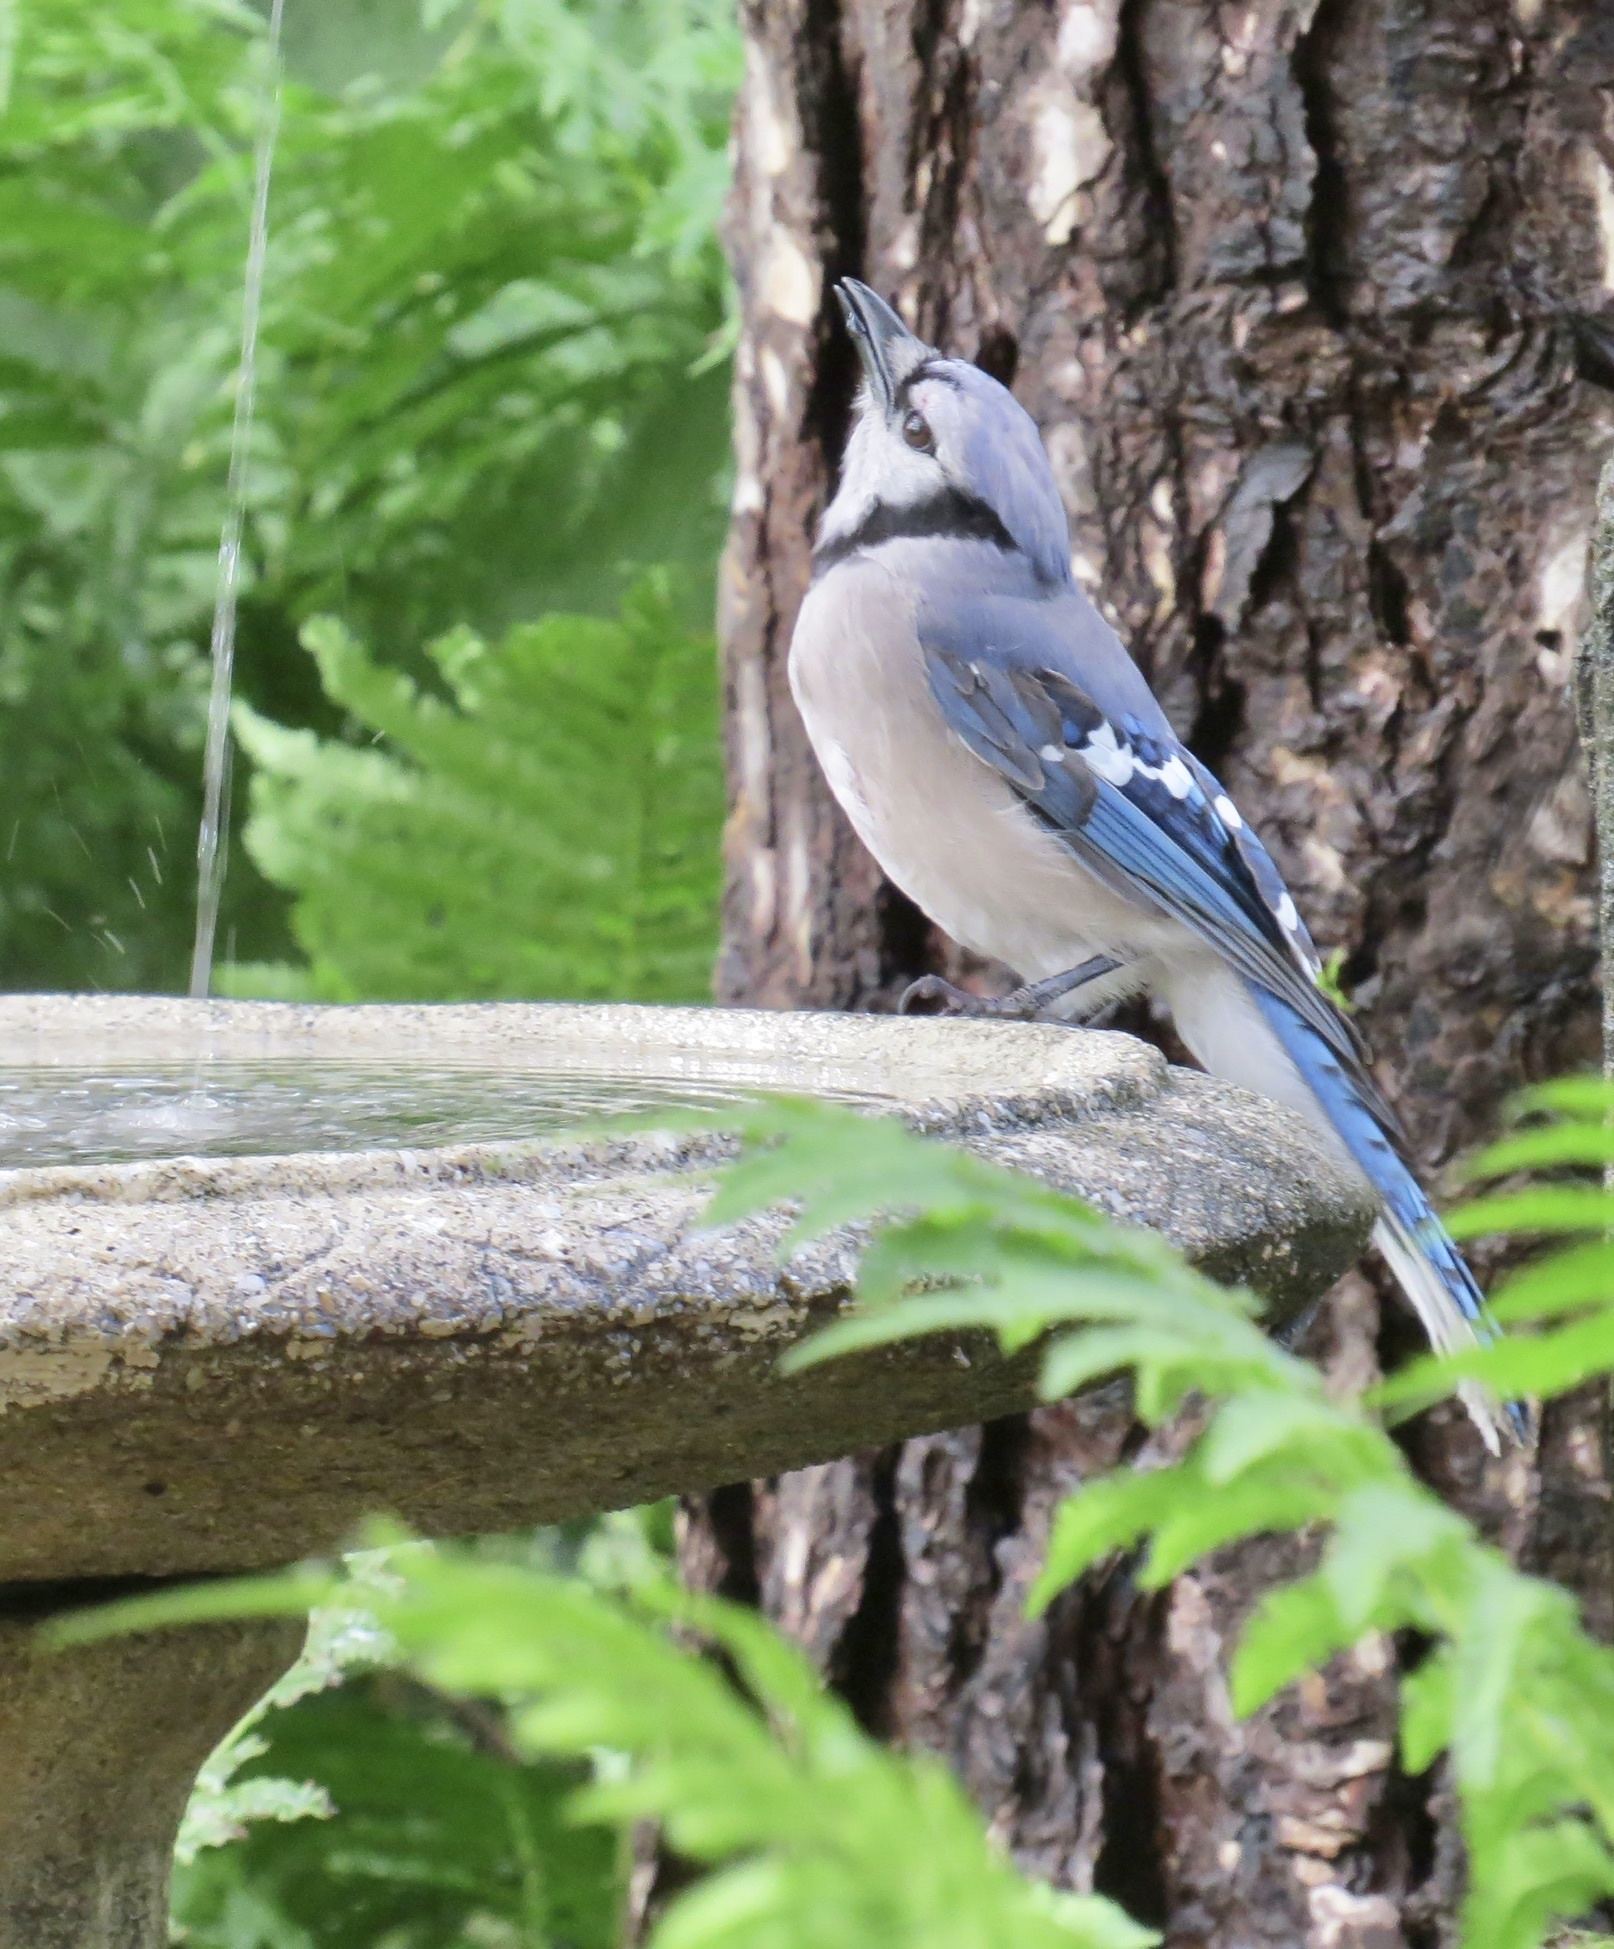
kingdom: Animalia
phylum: Chordata
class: Aves
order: Passeriformes
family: Corvidae
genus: Cyanocitta
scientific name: Cyanocitta cristata
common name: Blue jay
